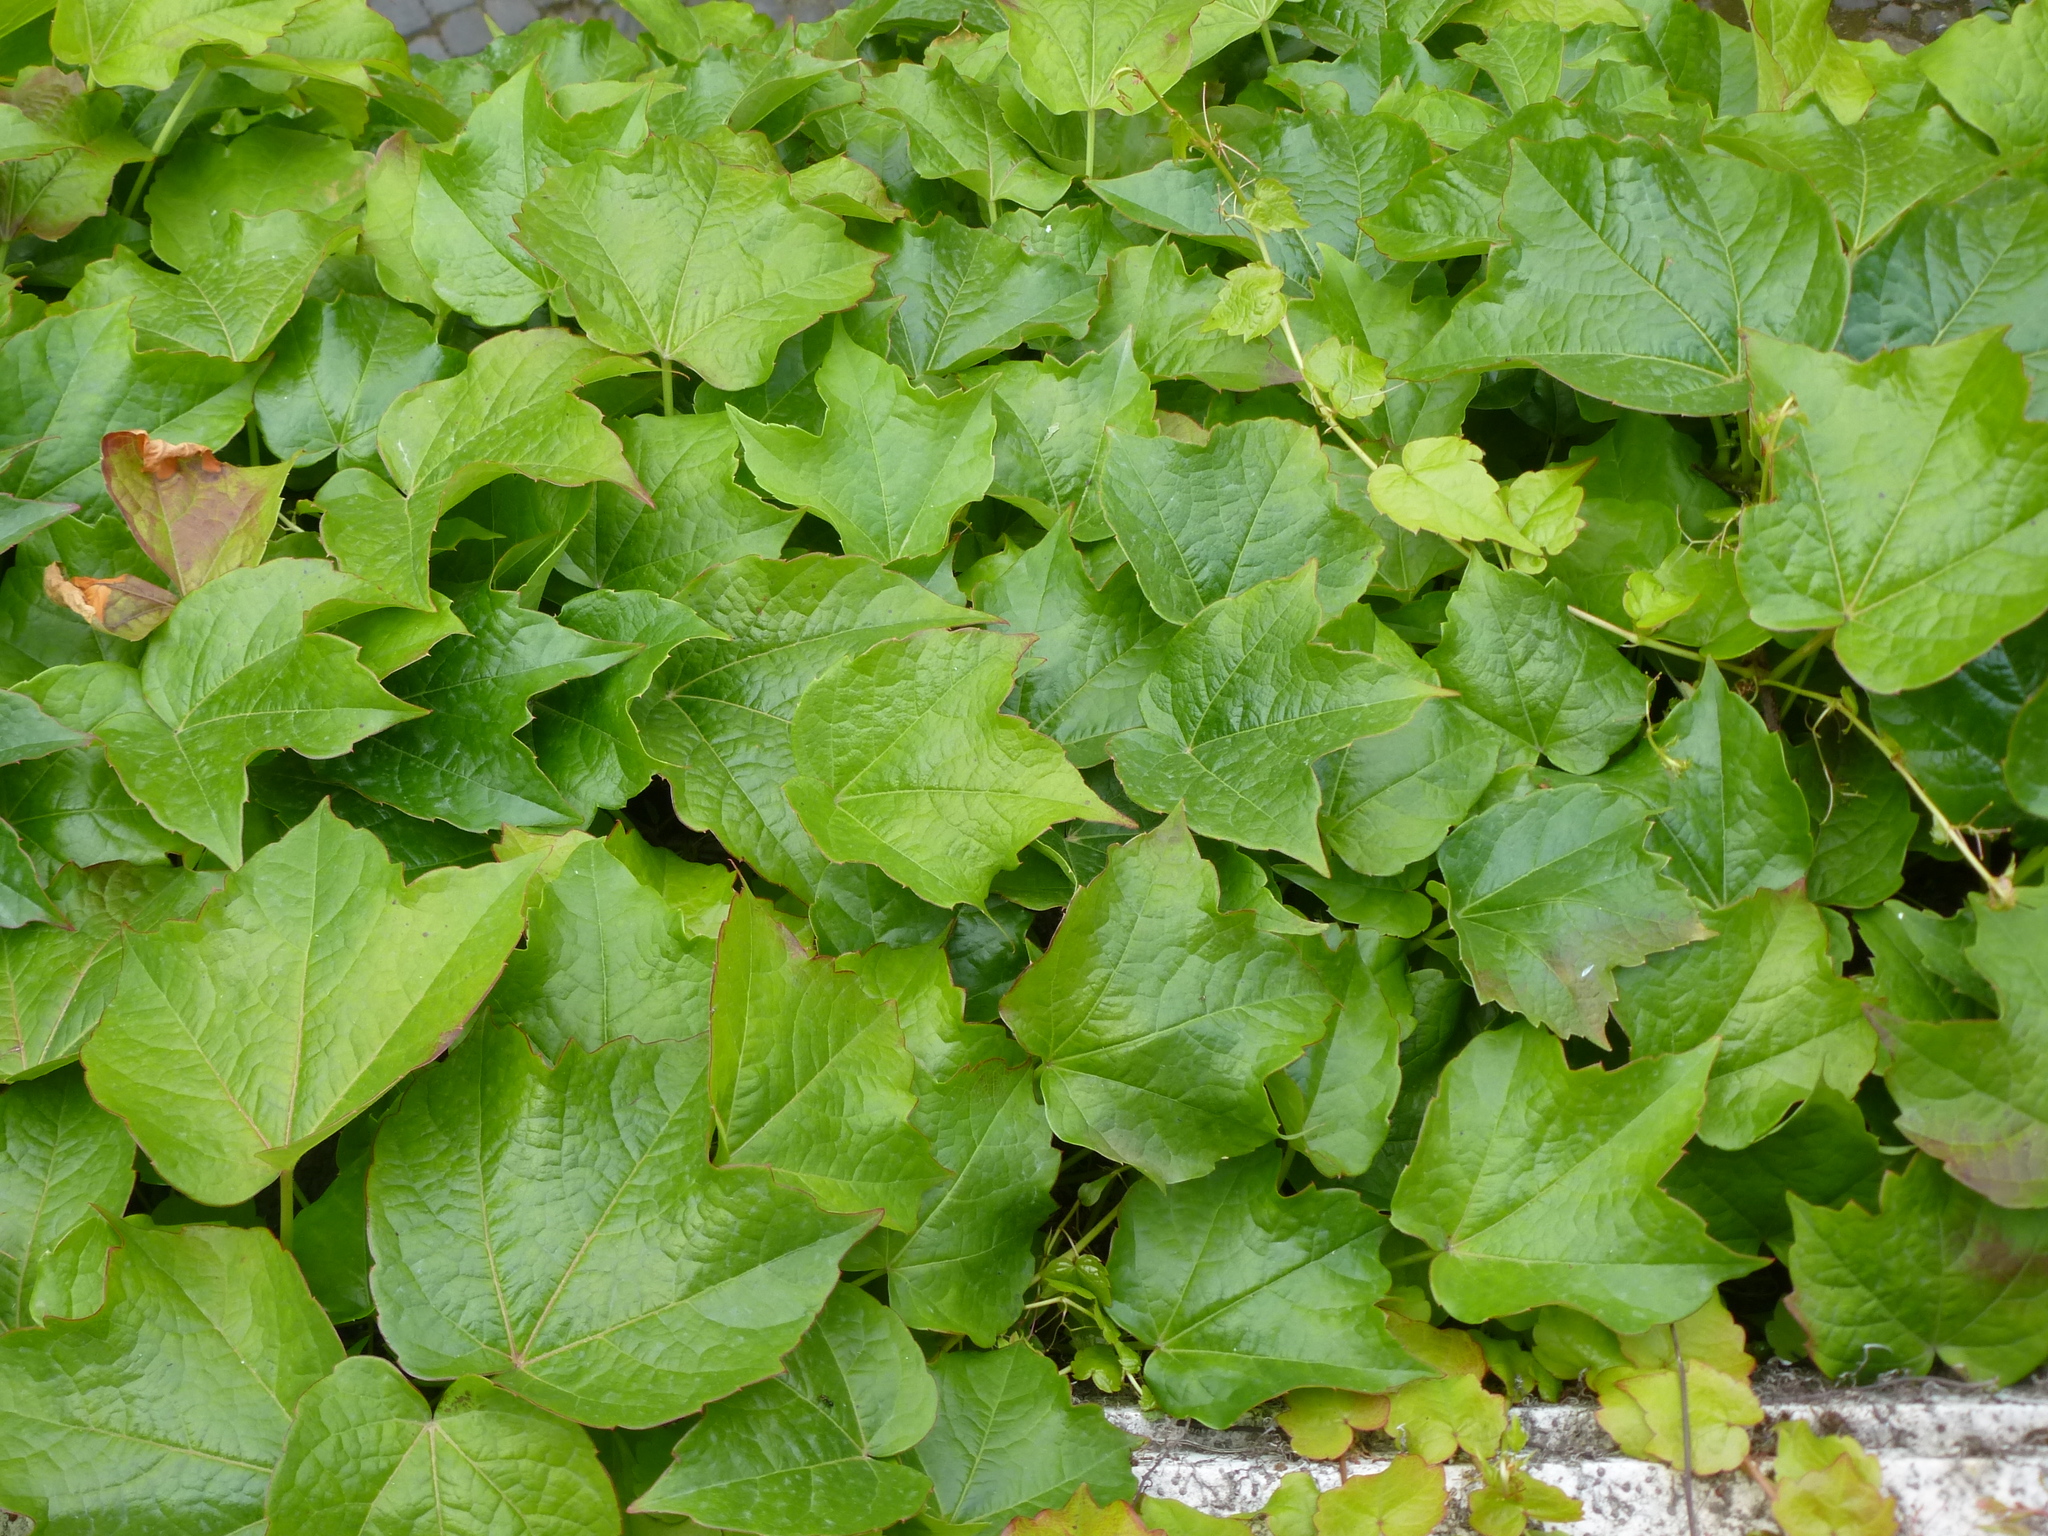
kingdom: Plantae
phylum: Tracheophyta
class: Magnoliopsida
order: Vitales
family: Vitaceae
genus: Parthenocissus
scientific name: Parthenocissus tricuspidata
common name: Boston ivy
